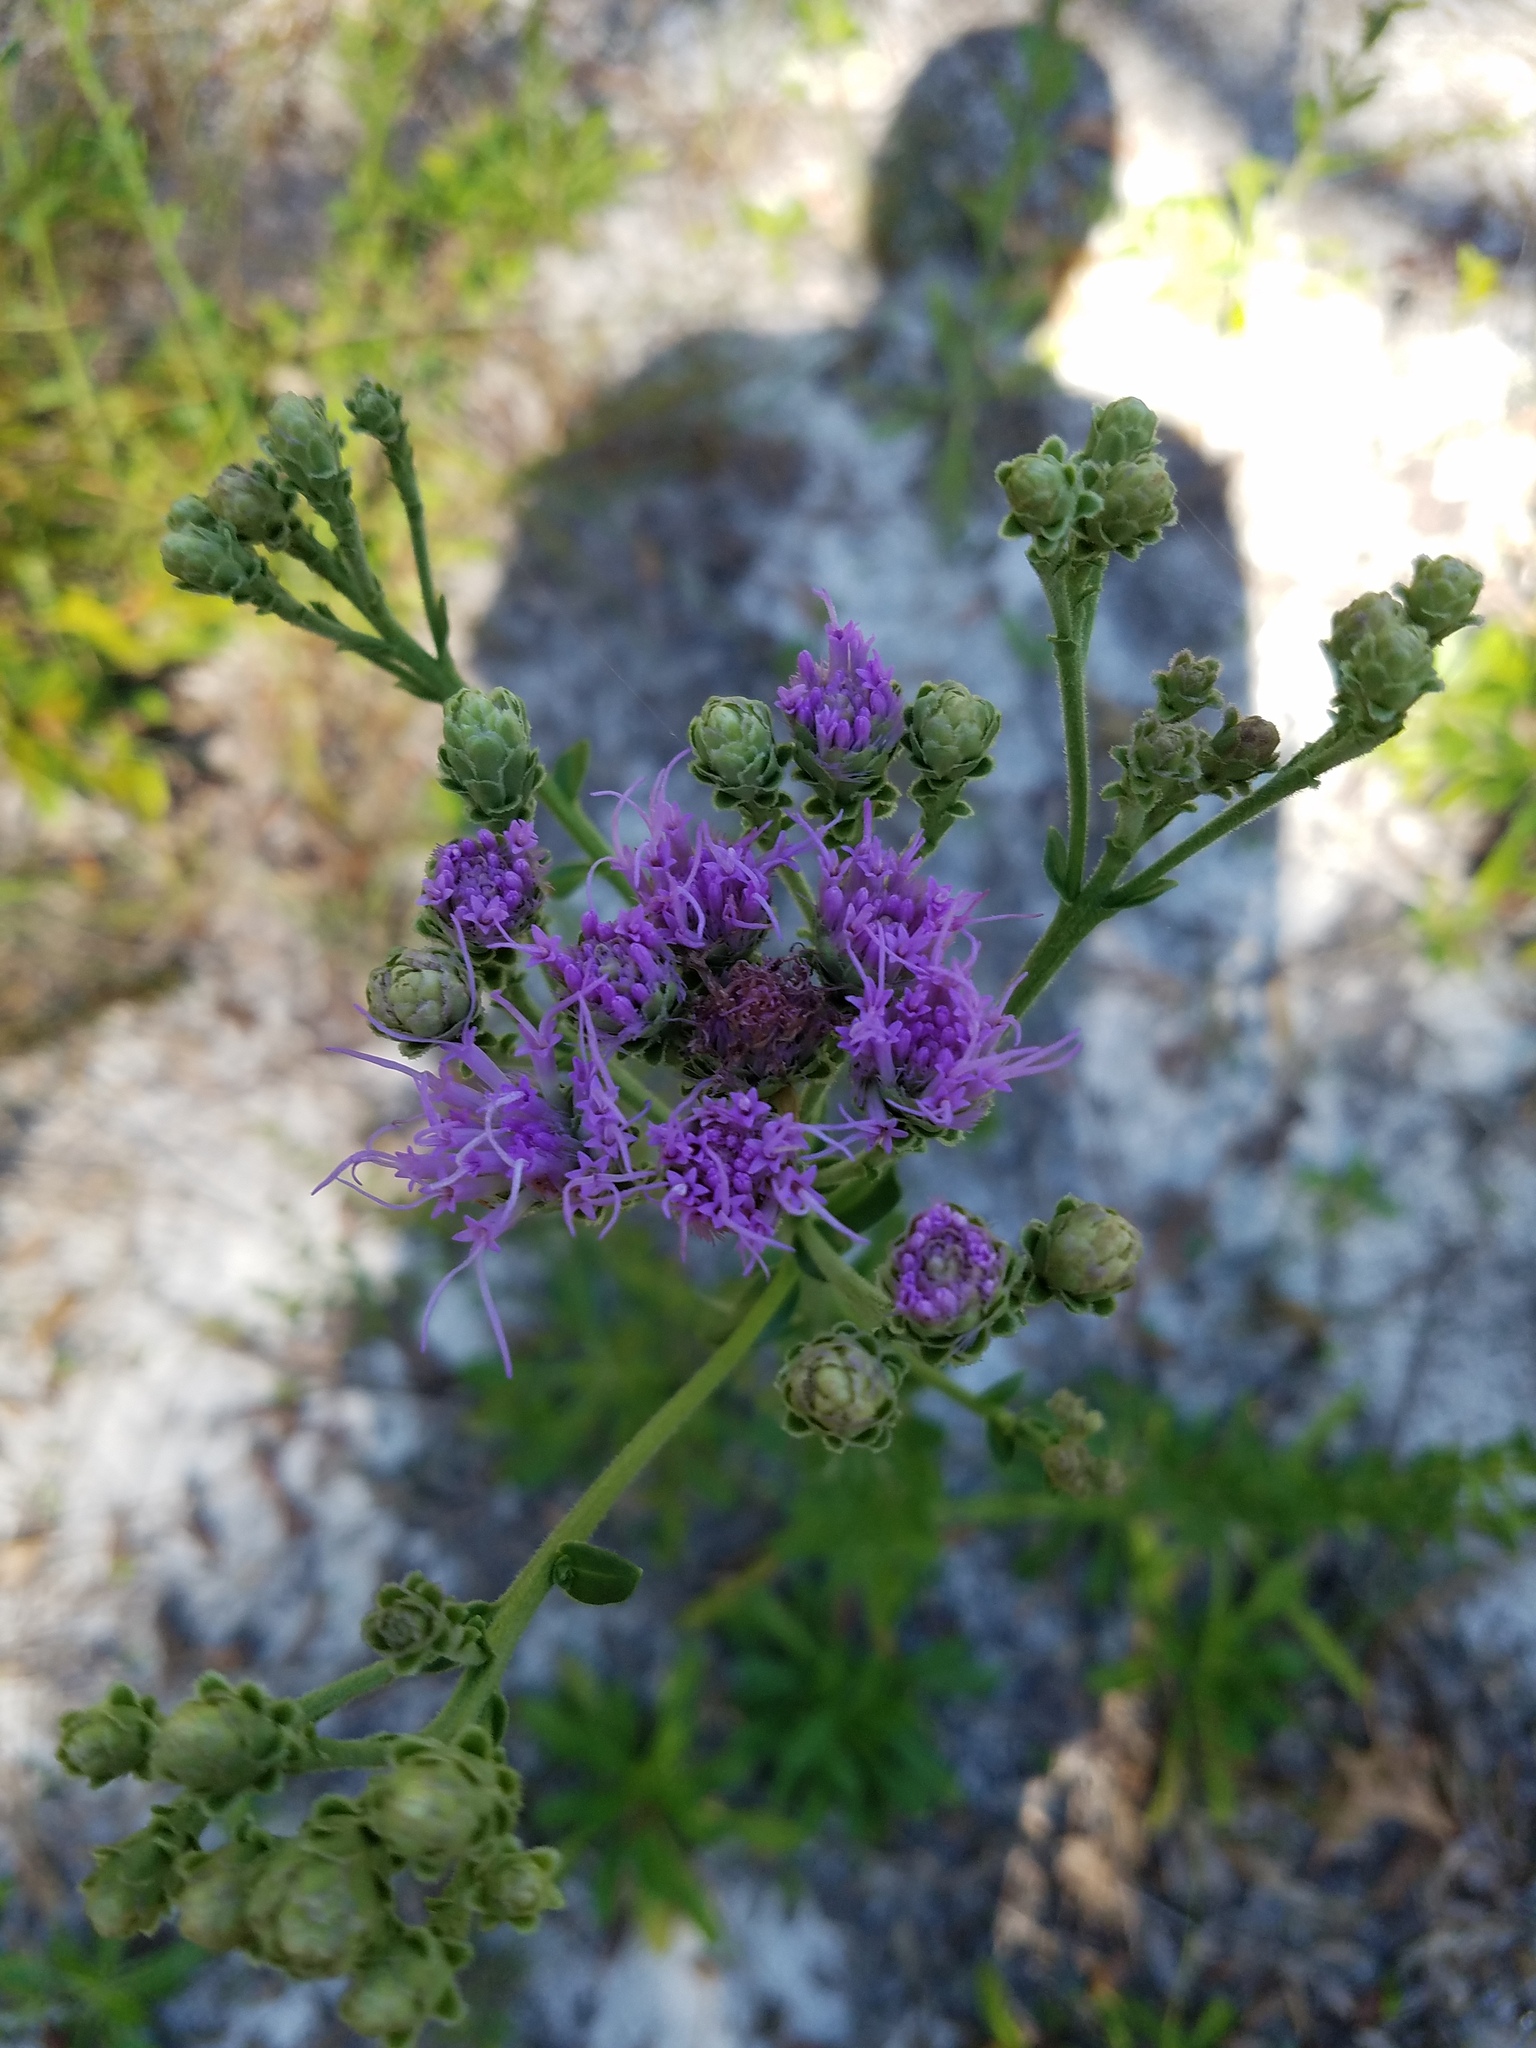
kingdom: Plantae
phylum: Tracheophyta
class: Magnoliopsida
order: Asterales
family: Asteraceae
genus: Carphephorus
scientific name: Carphephorus corymbosus
